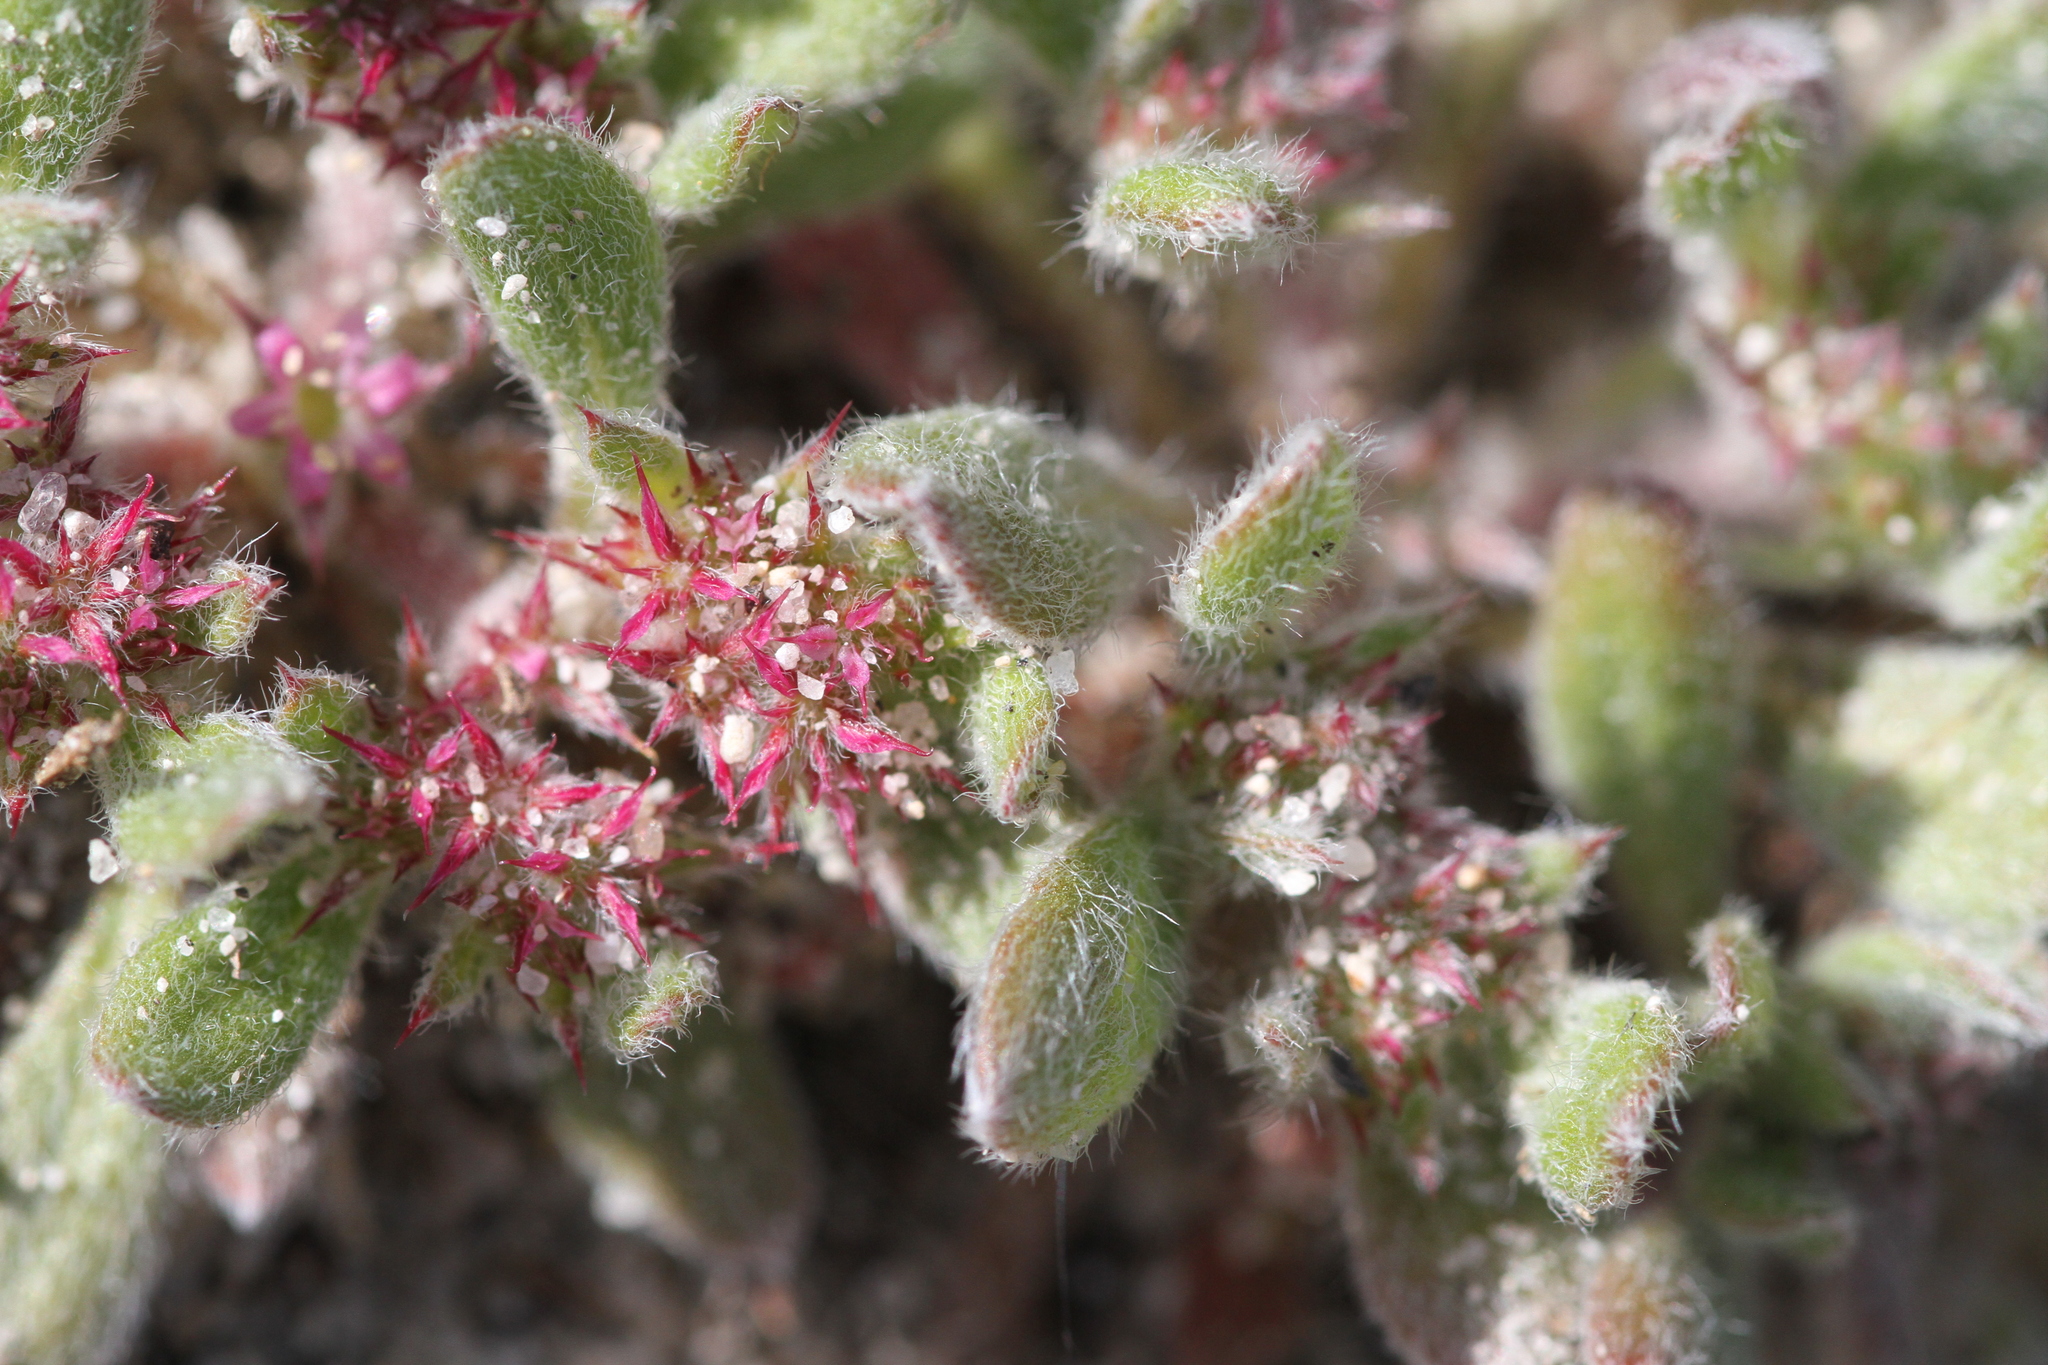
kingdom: Plantae
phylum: Tracheophyta
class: Magnoliopsida
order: Caryophyllales
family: Polygonaceae
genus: Chorizanthe
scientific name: Chorizanthe pungens
